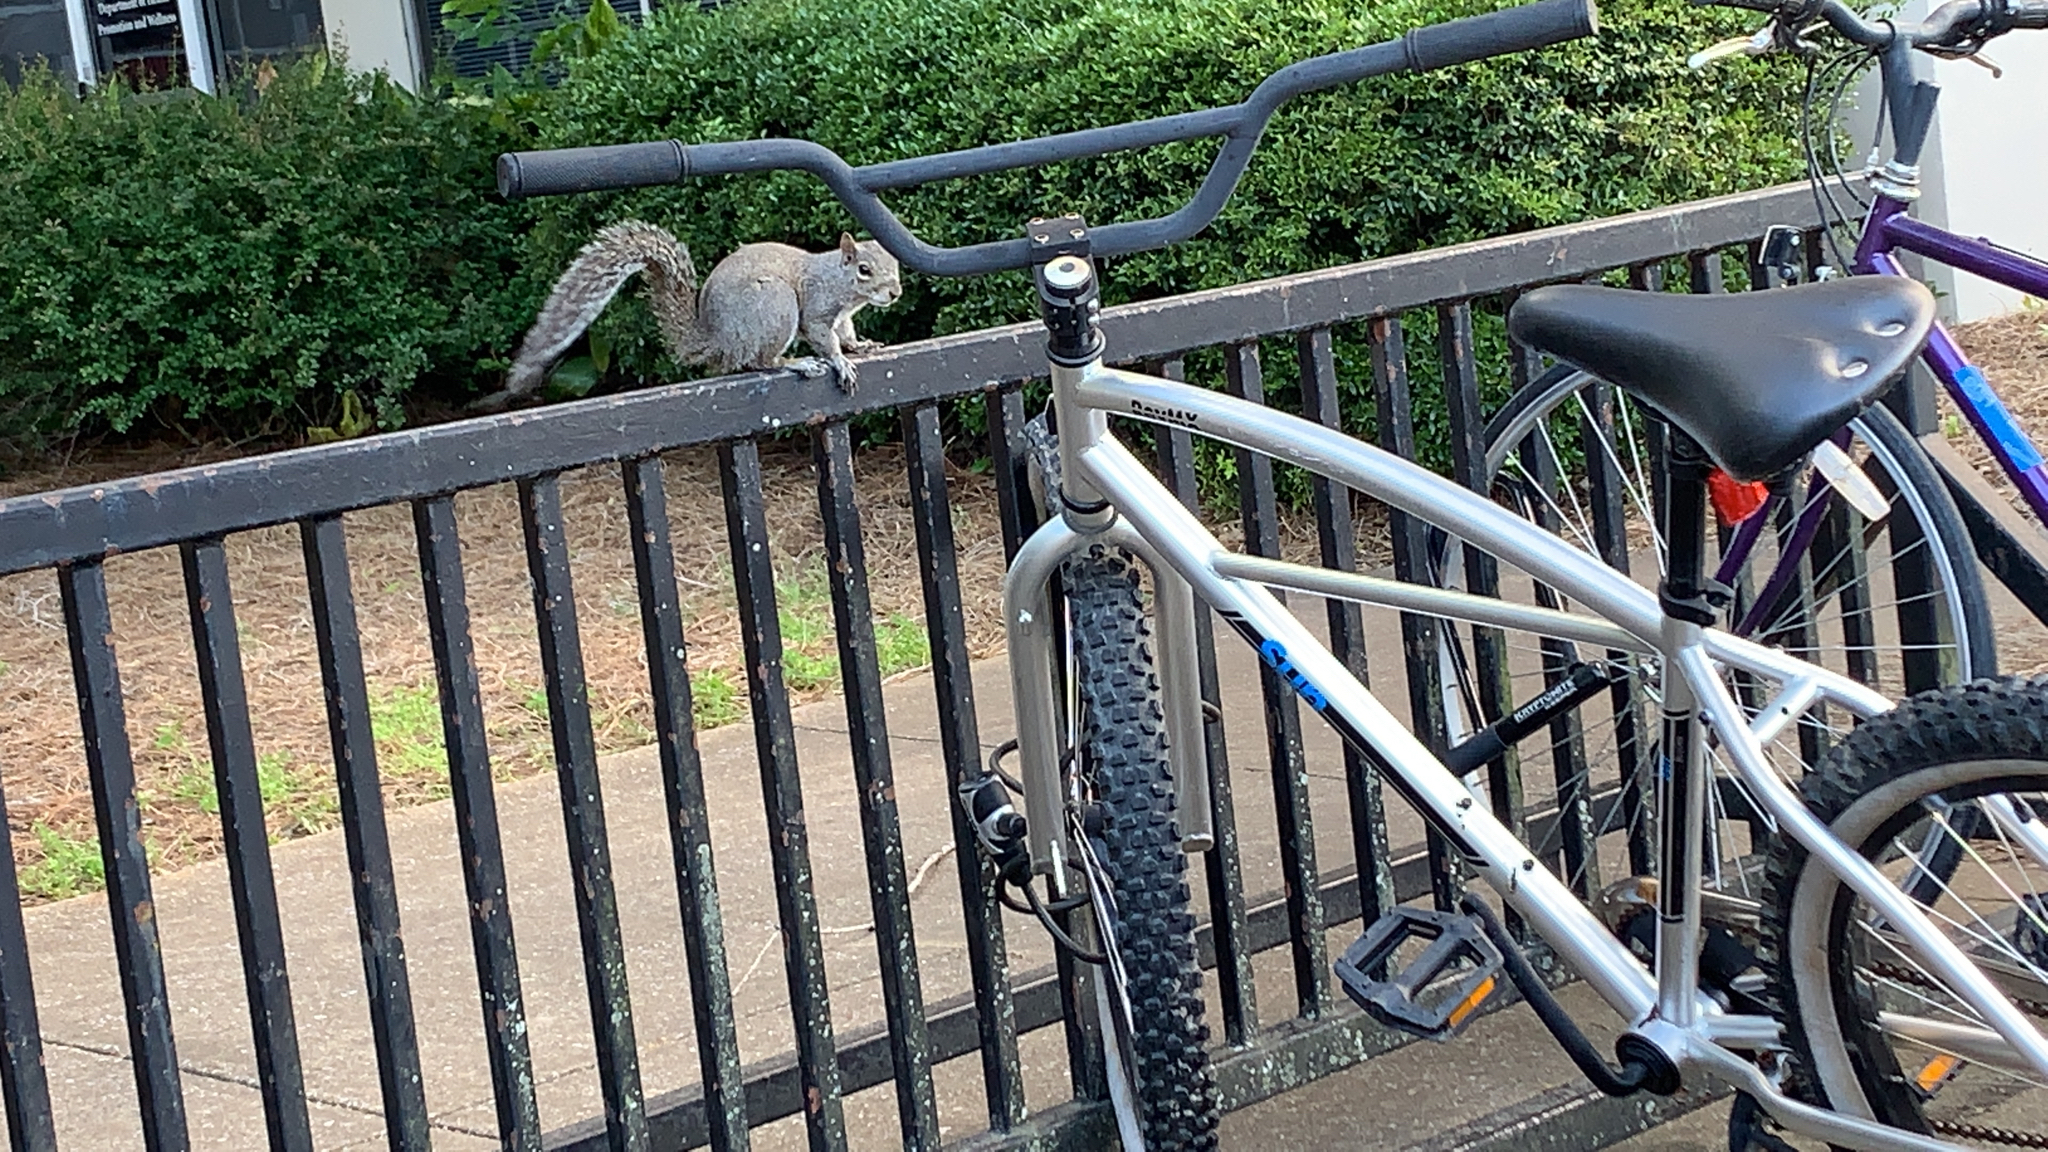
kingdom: Animalia
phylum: Chordata
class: Mammalia
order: Rodentia
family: Sciuridae
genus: Sciurus
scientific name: Sciurus carolinensis
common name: Eastern gray squirrel
